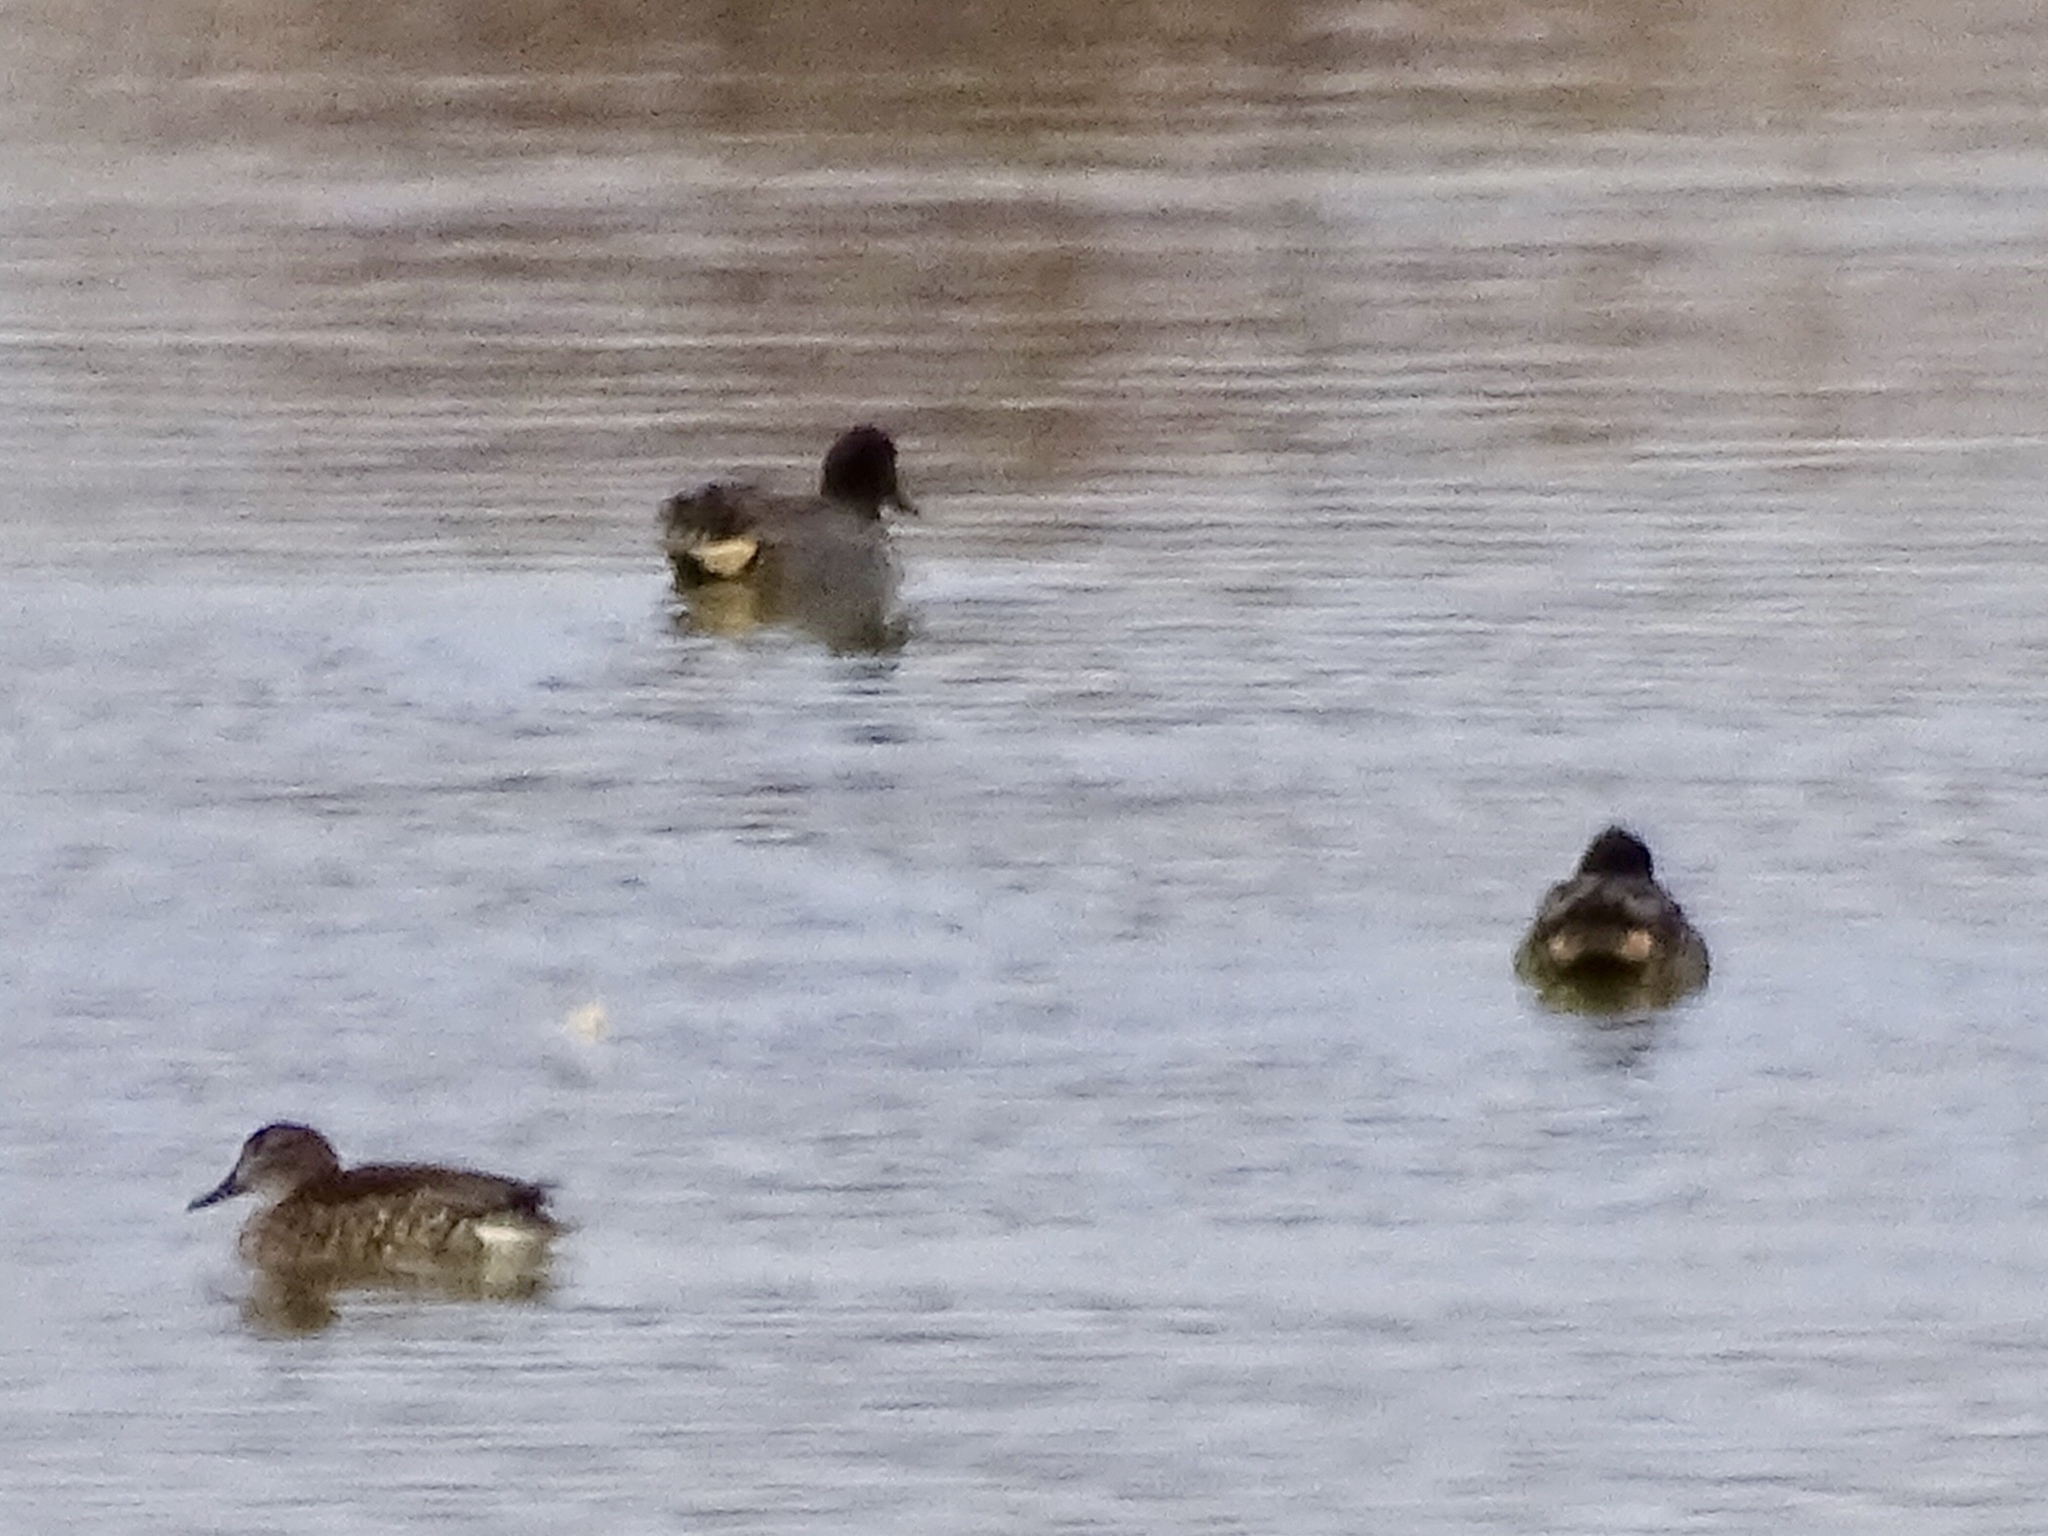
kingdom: Animalia
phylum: Chordata
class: Aves
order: Anseriformes
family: Anatidae
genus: Anas
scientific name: Anas crecca
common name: Eurasian teal
